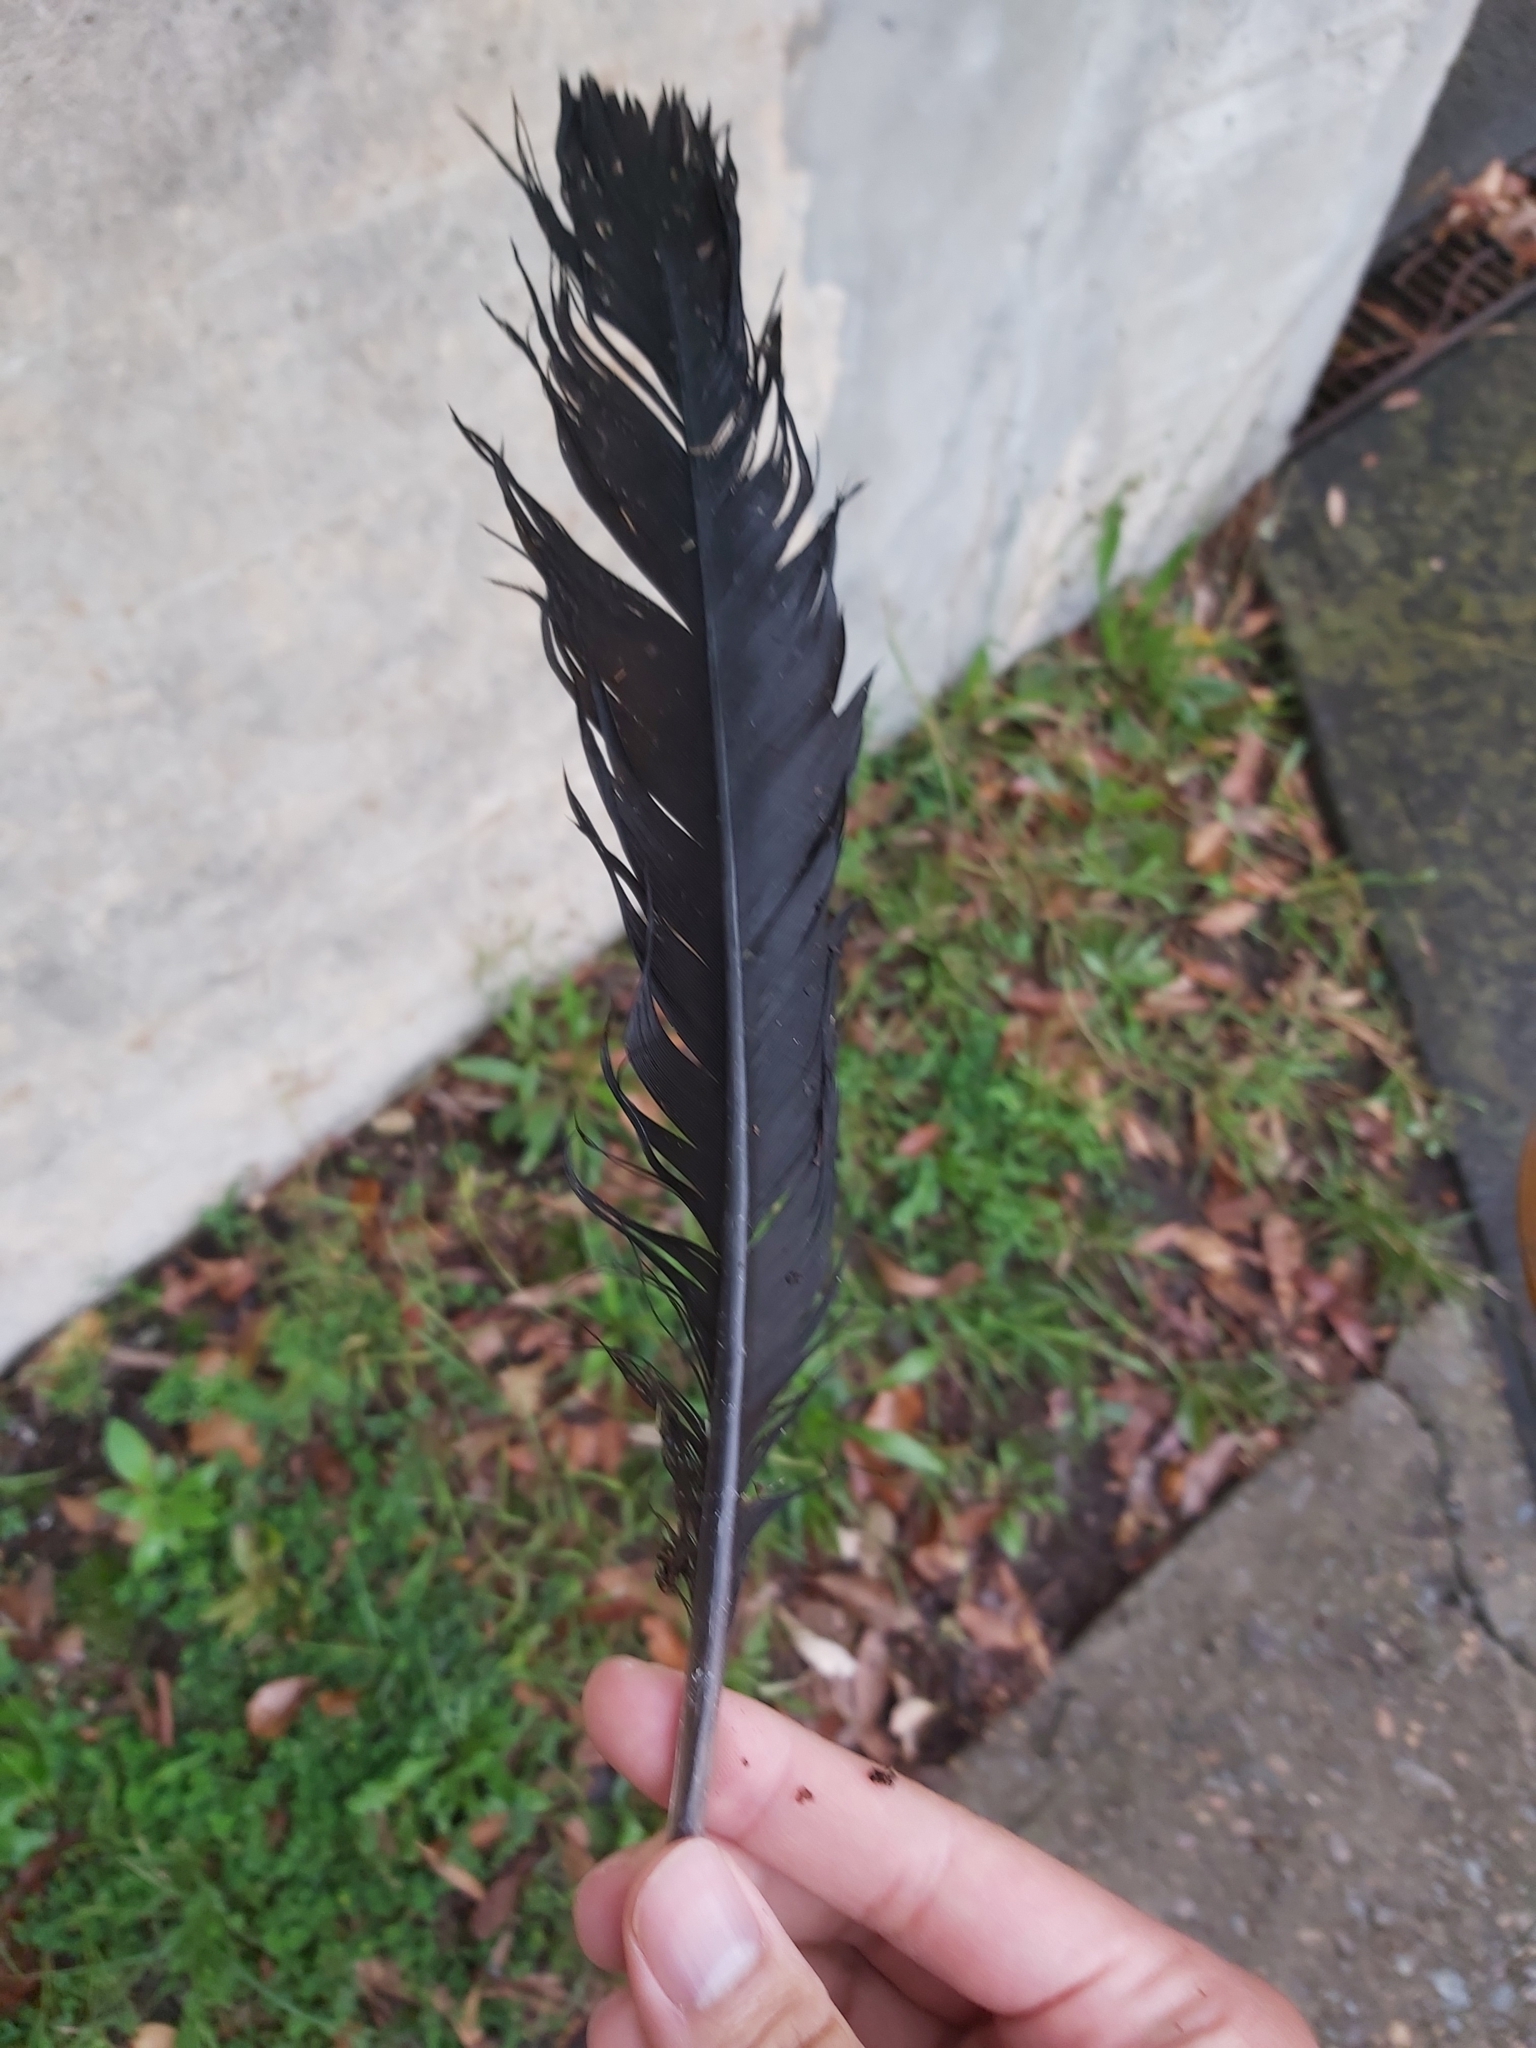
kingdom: Animalia
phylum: Chordata
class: Aves
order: Galliformes
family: Megapodiidae
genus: Alectura
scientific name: Alectura lathami
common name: Australian brushturkey
